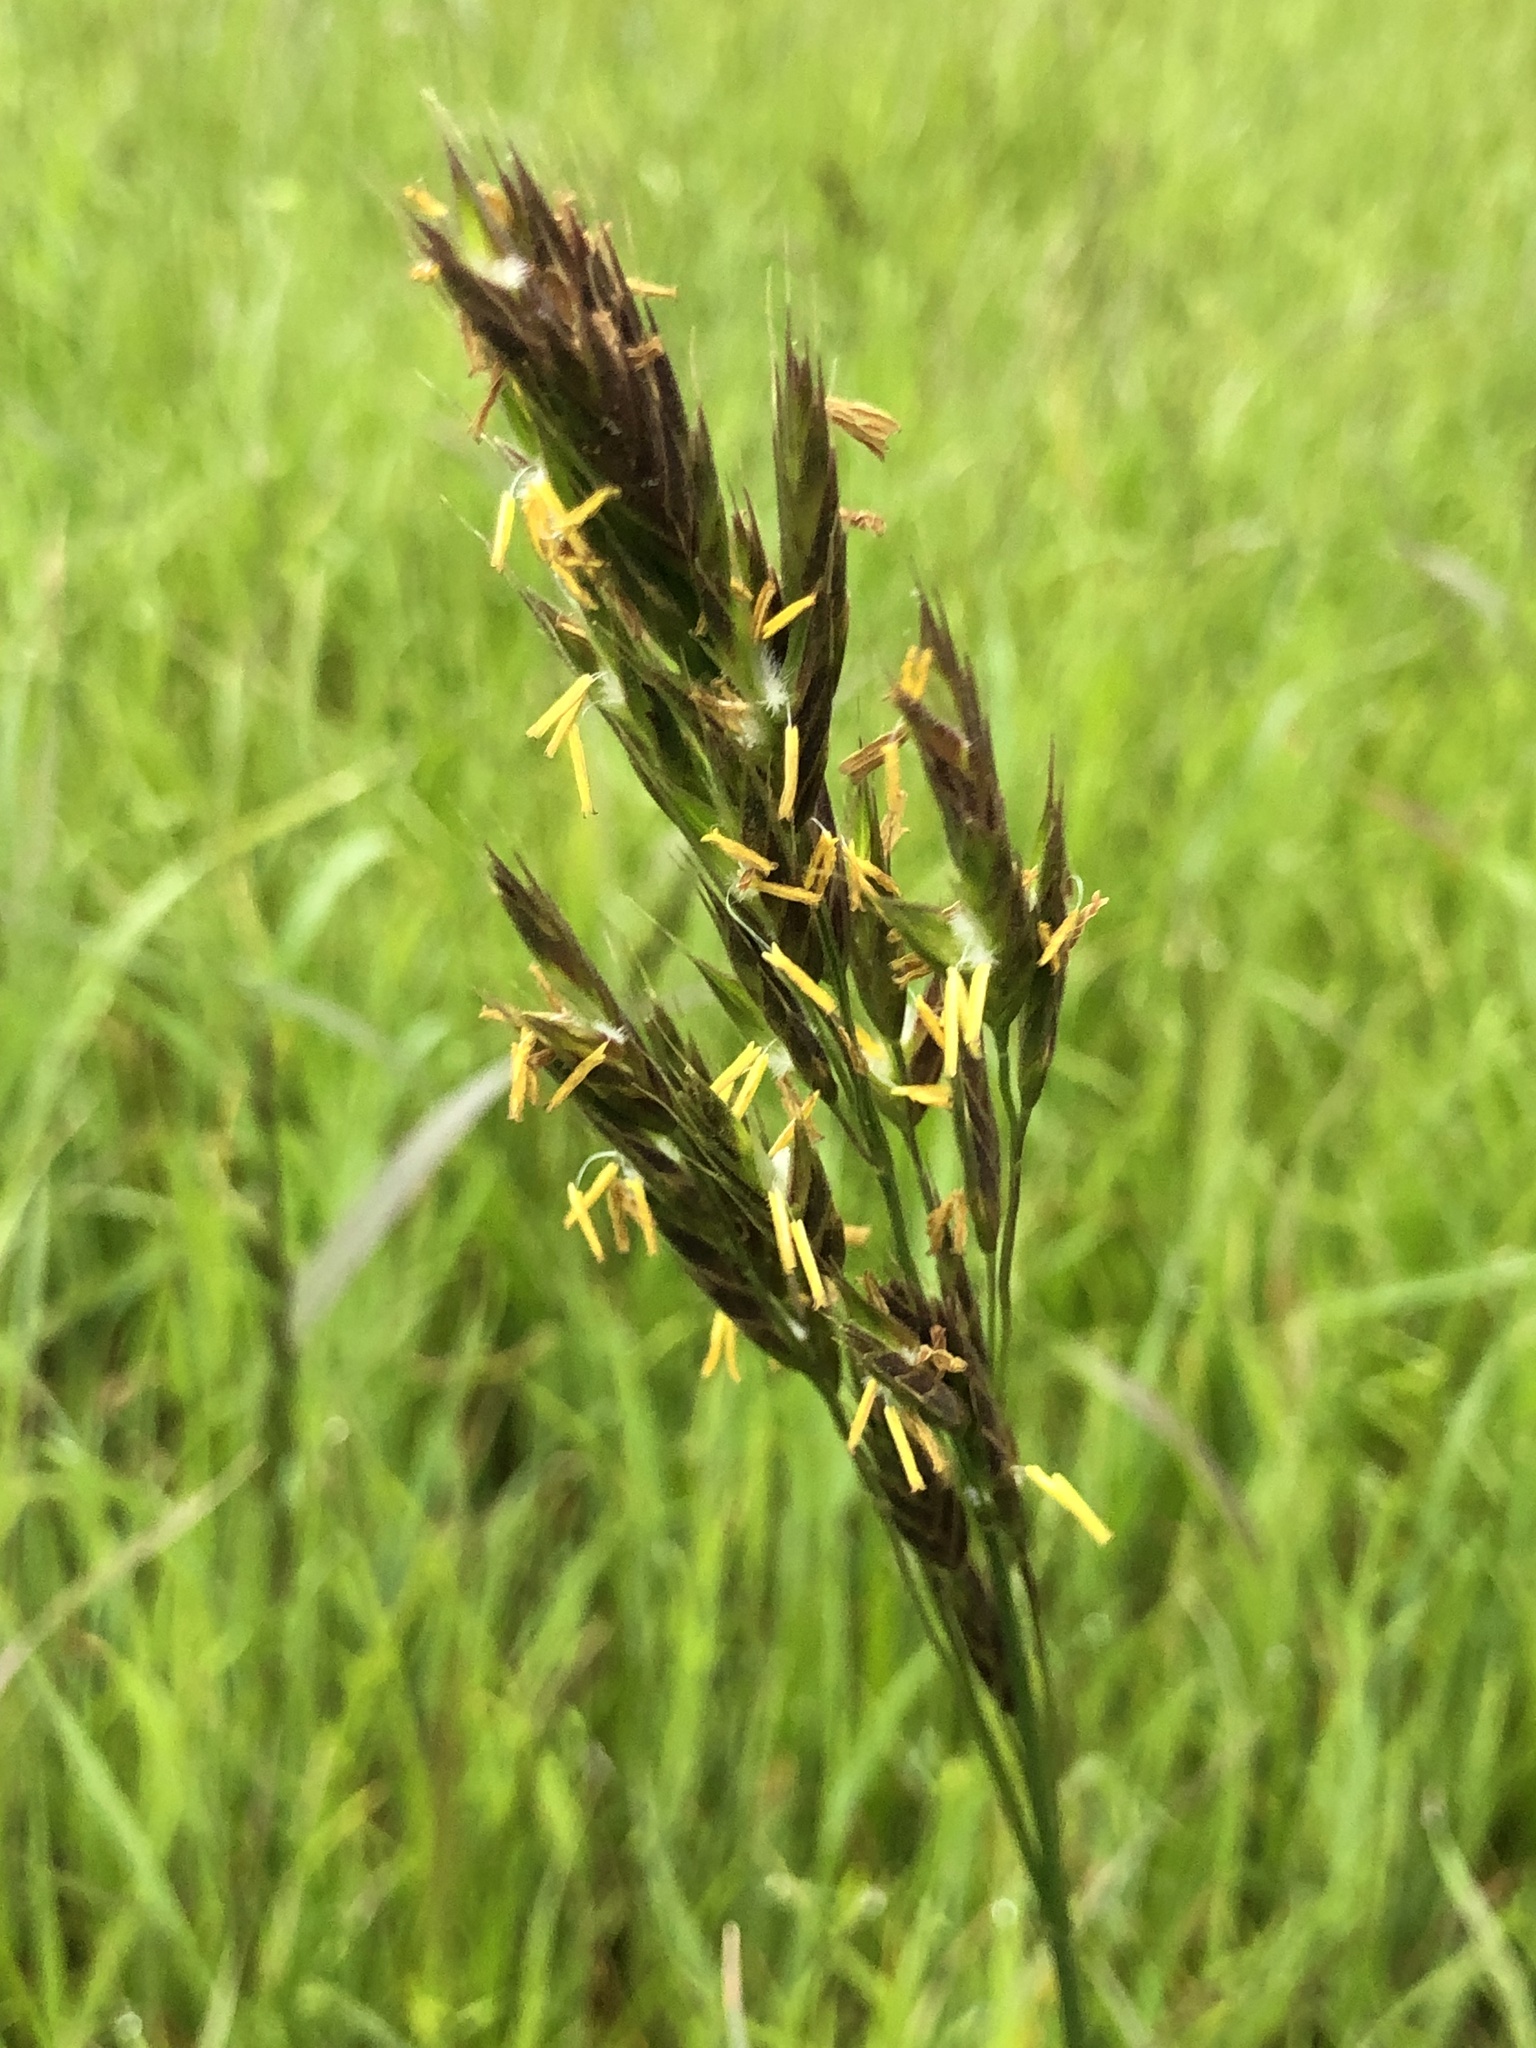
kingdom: Plantae
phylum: Tracheophyta
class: Liliopsida
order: Poales
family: Poaceae
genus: Bromus
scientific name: Bromus carinatus
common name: Mountain brome
